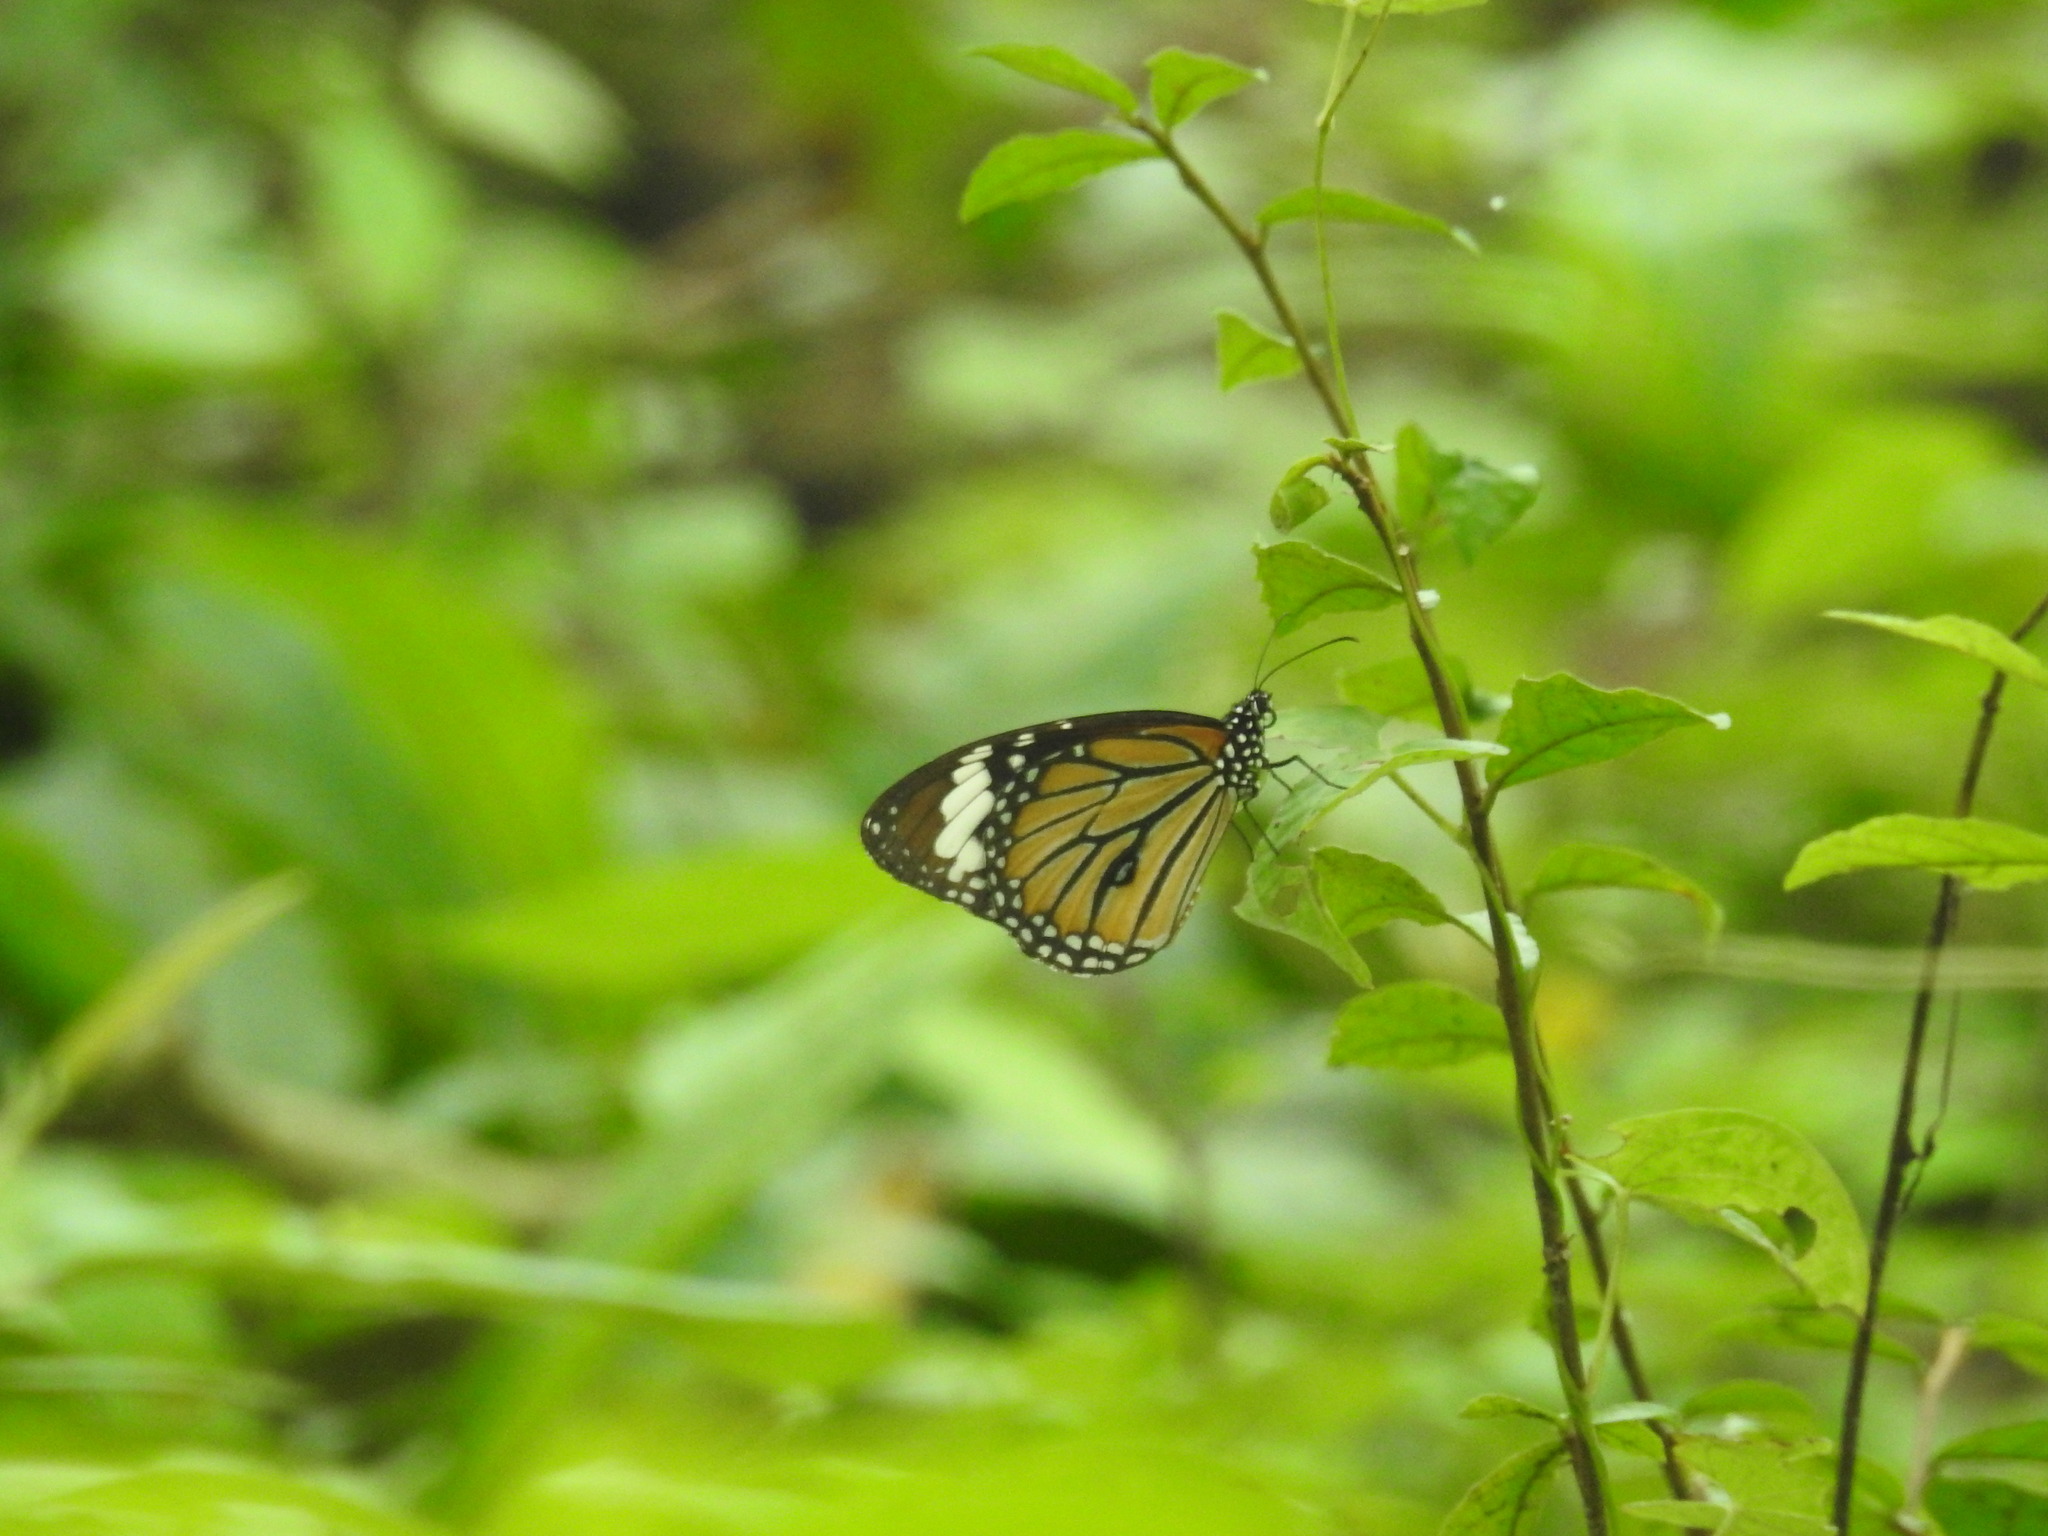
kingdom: Animalia
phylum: Arthropoda
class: Insecta
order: Lepidoptera
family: Nymphalidae
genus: Danaus
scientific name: Danaus genutia
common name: Common tiger butterfly
